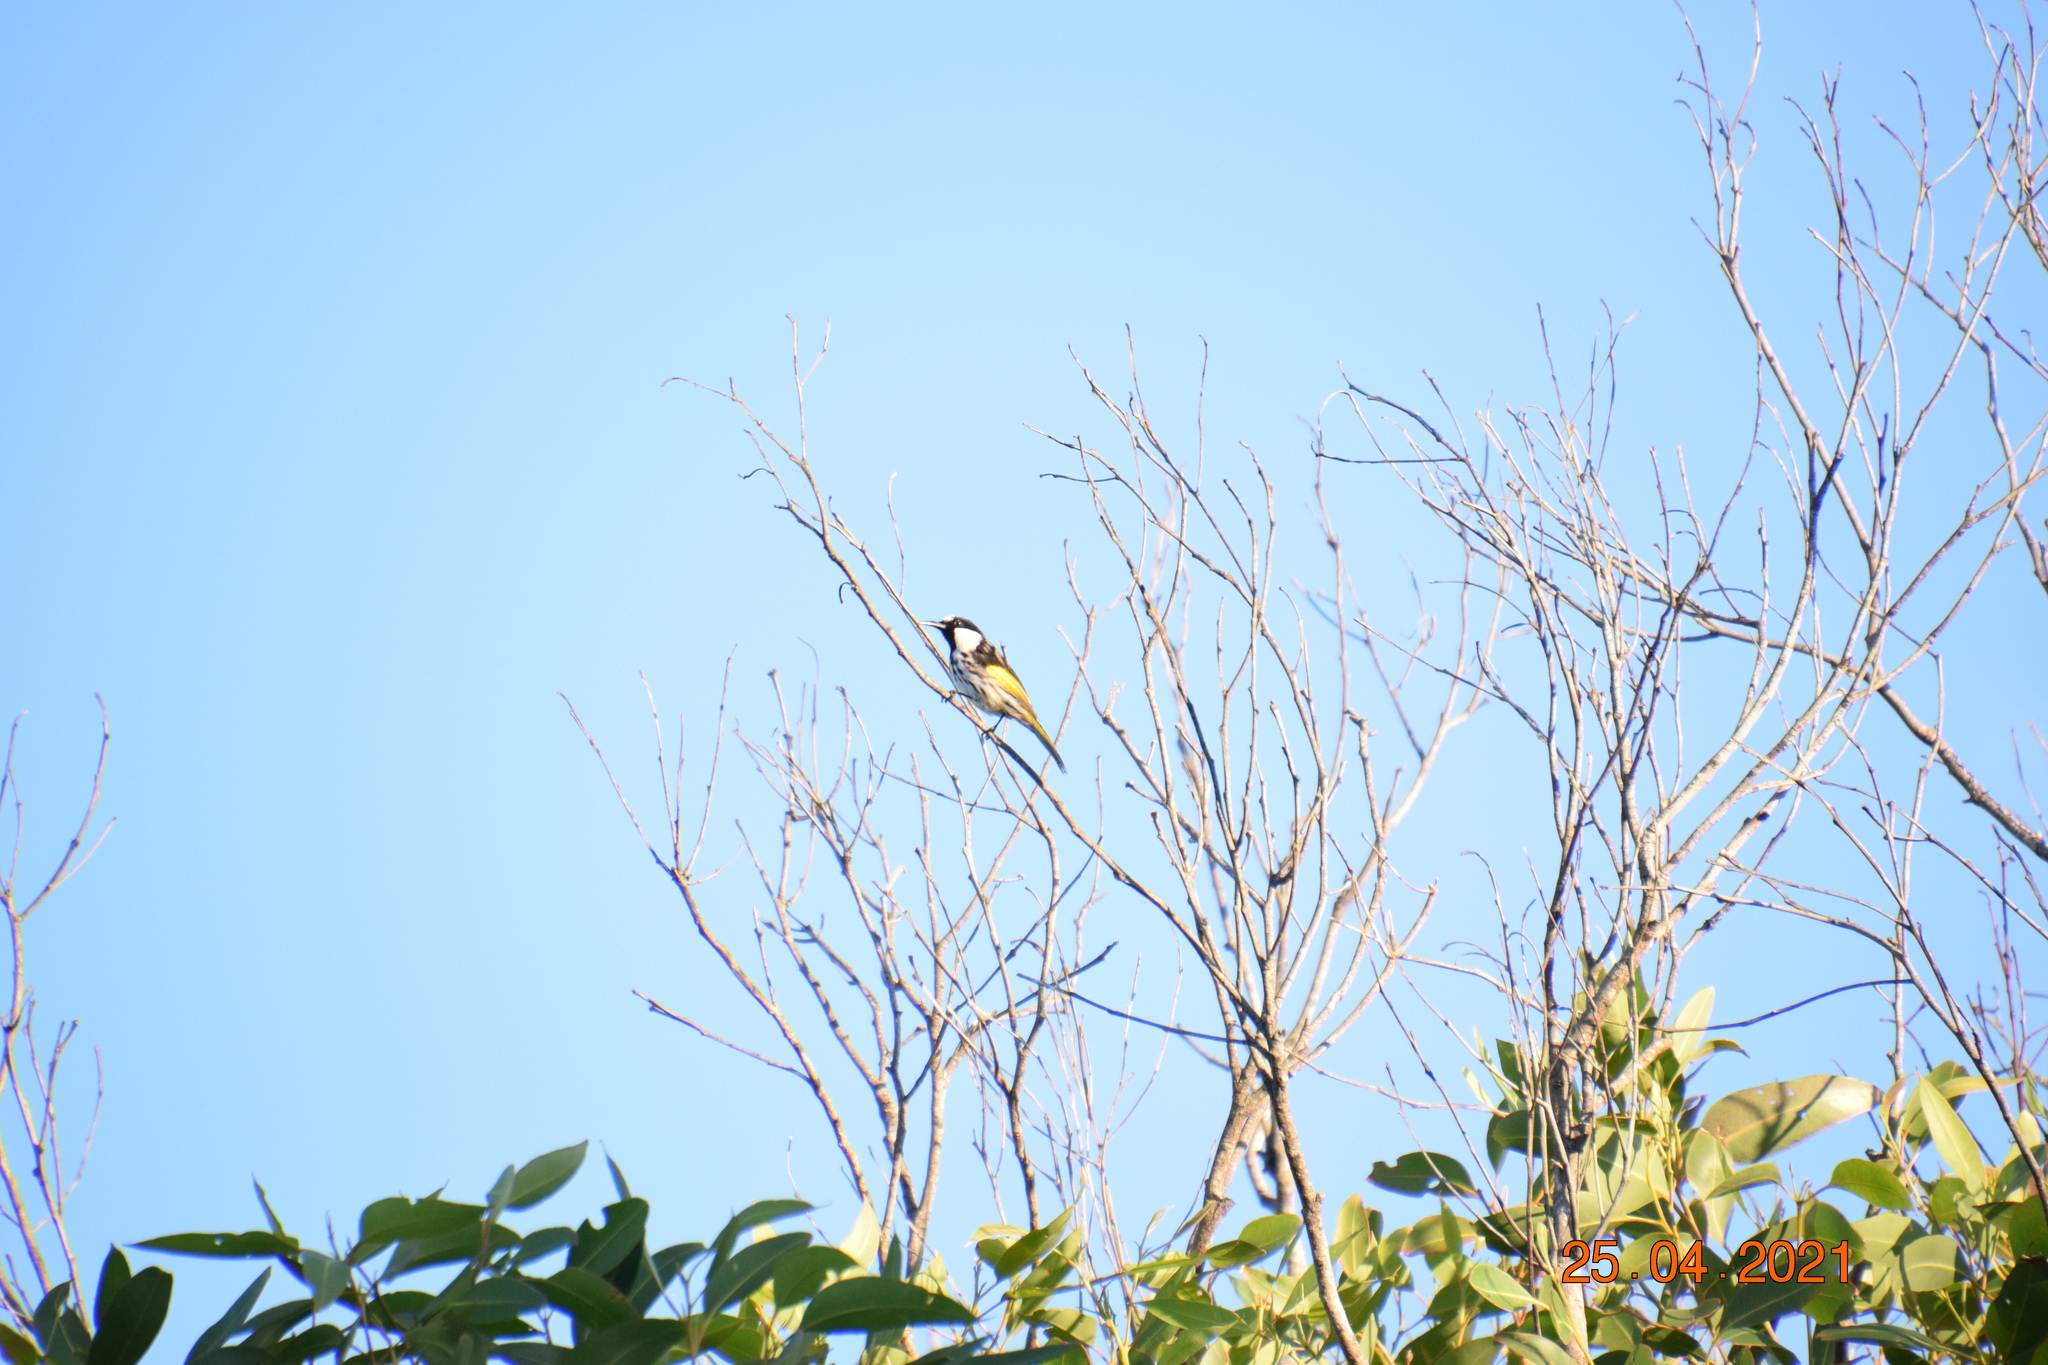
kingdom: Animalia
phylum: Chordata
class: Aves
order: Passeriformes
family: Meliphagidae
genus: Phylidonyris
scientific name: Phylidonyris niger
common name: White-cheeked honeyeater
